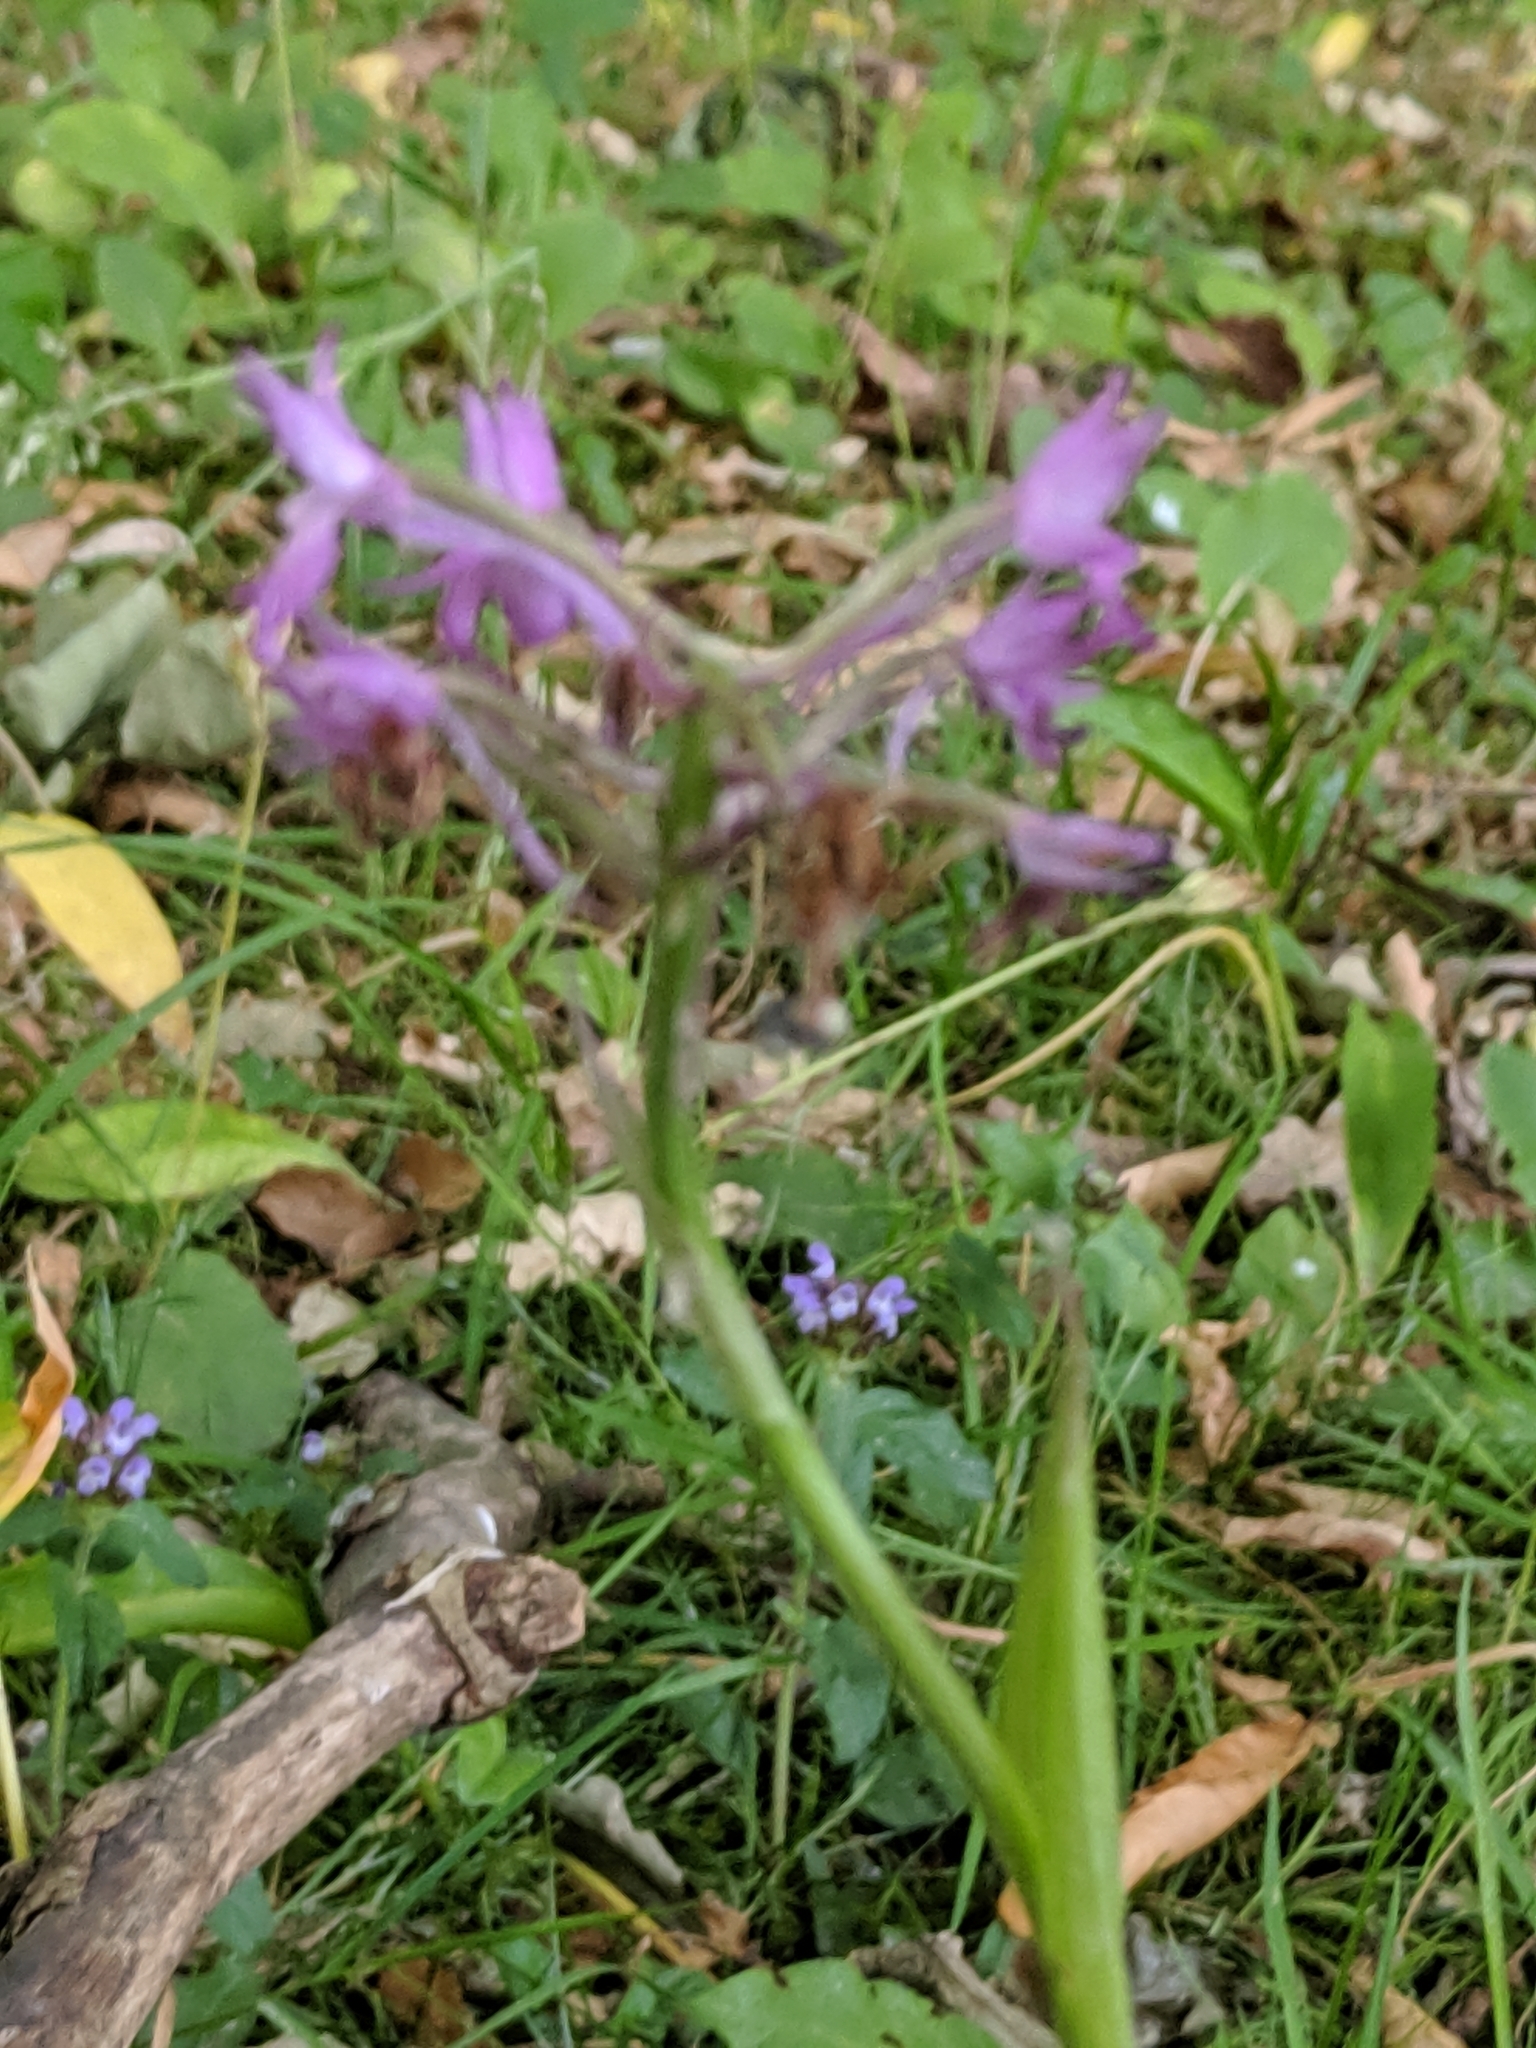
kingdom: Plantae
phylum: Tracheophyta
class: Liliopsida
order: Asparagales
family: Orchidaceae
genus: Anacamptis
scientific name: Anacamptis pyramidalis
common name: Pyramidal orchid
